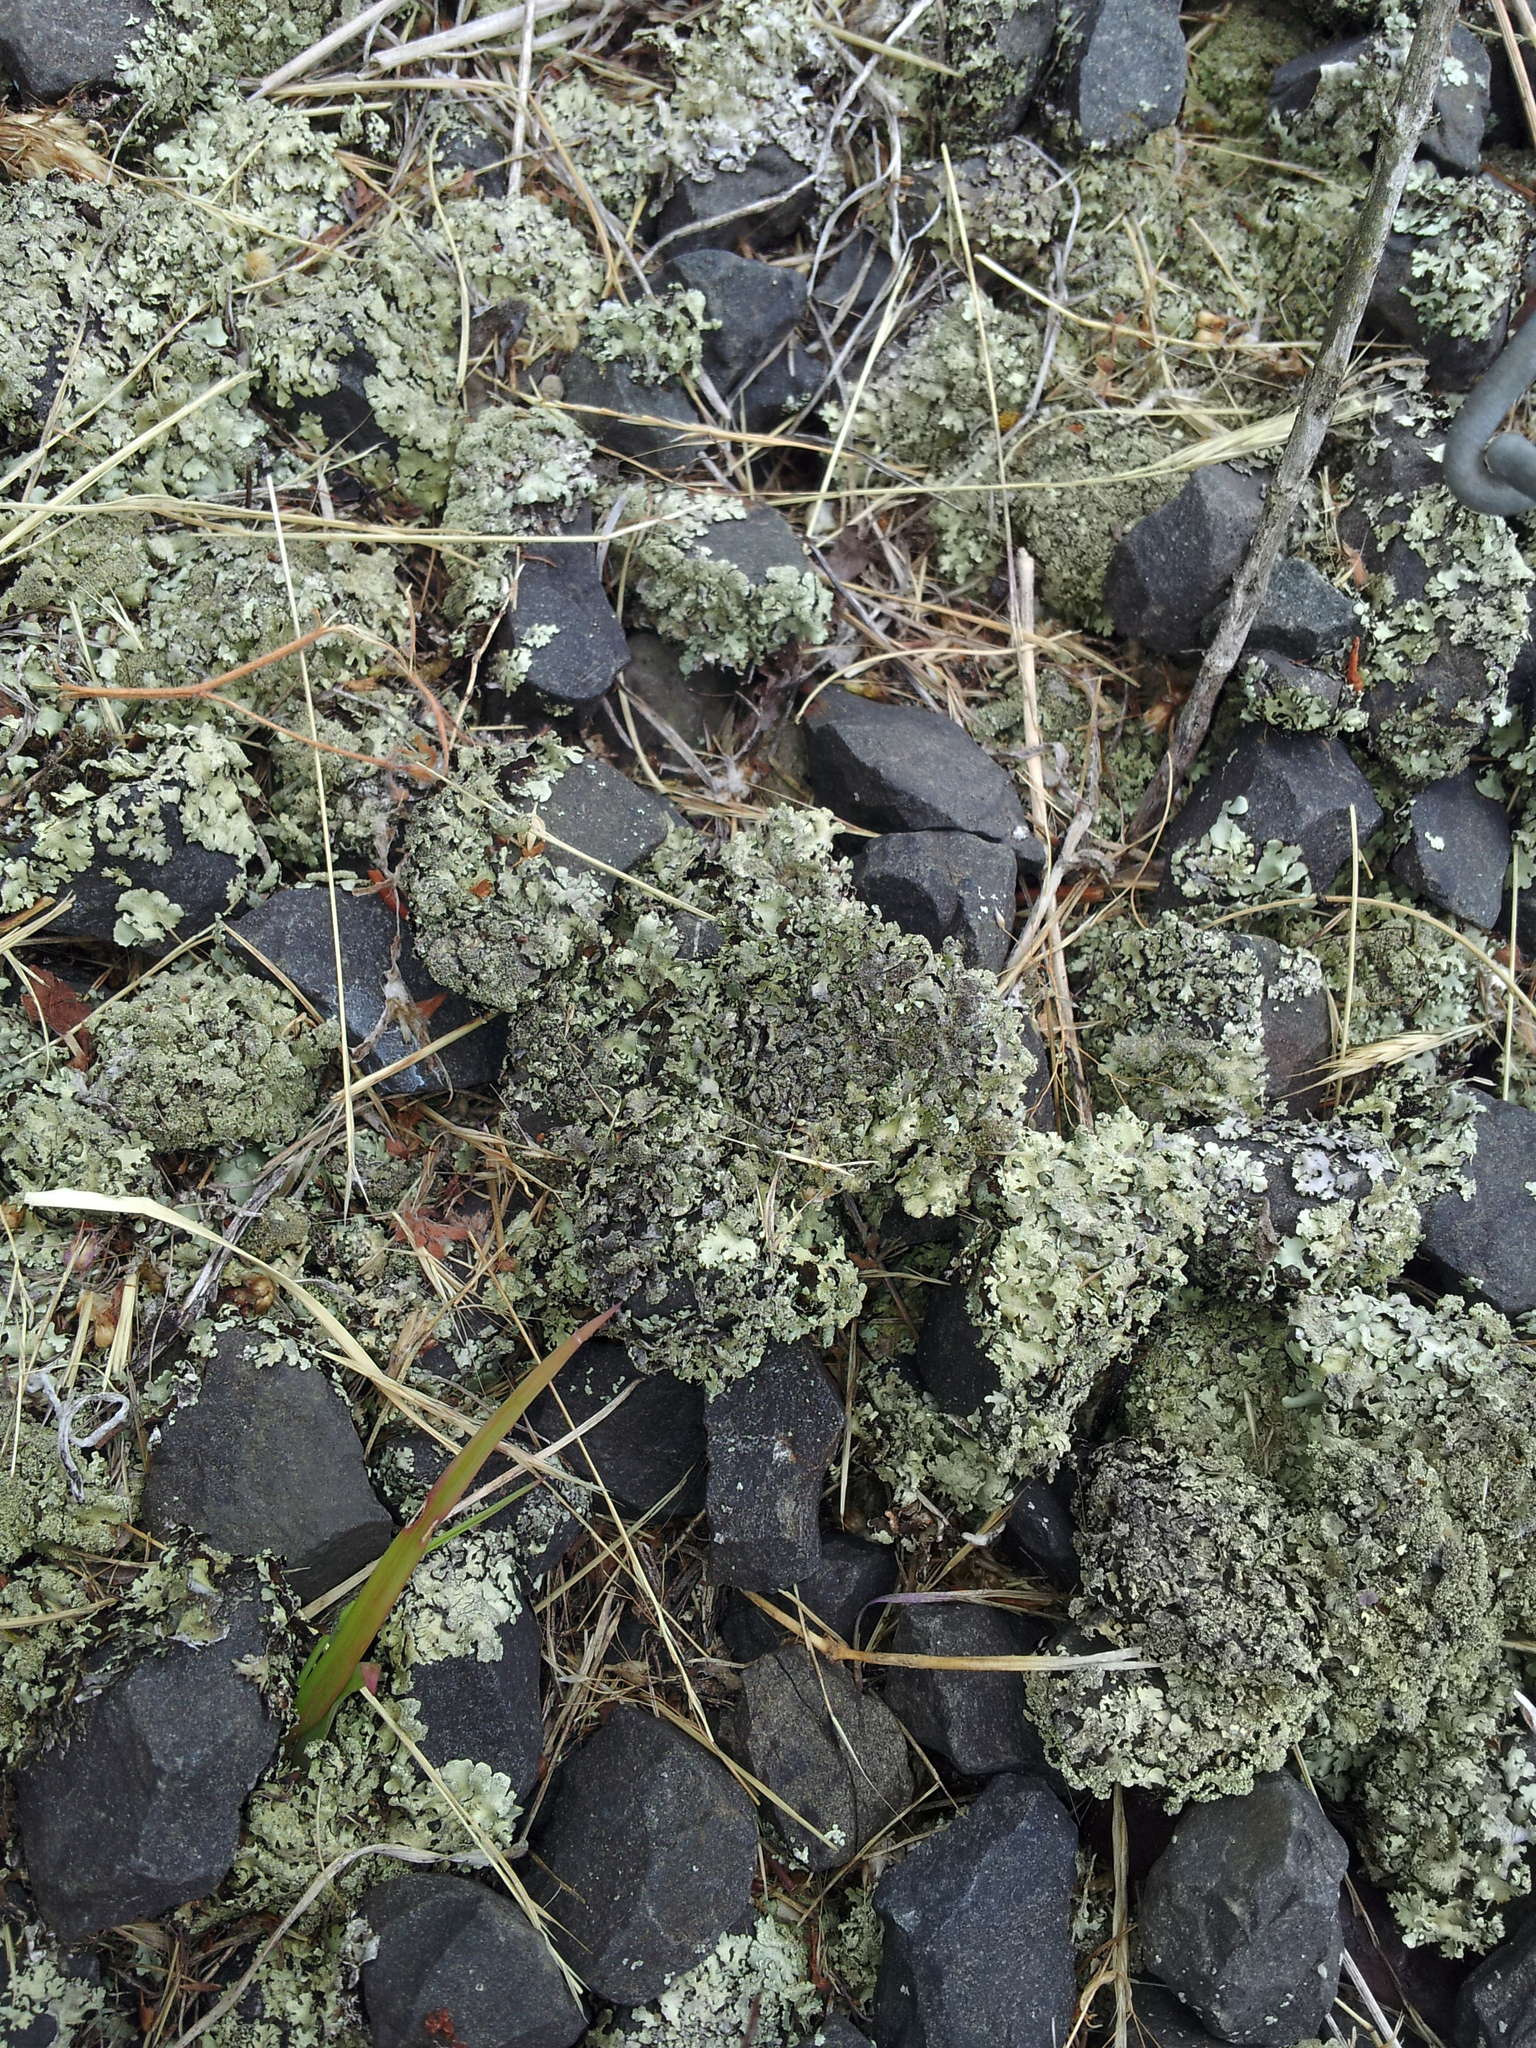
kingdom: Fungi
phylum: Ascomycota
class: Lecanoromycetes
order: Lecanorales
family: Parmeliaceae
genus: Xanthoparmelia
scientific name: Xanthoparmelia scabrosa
